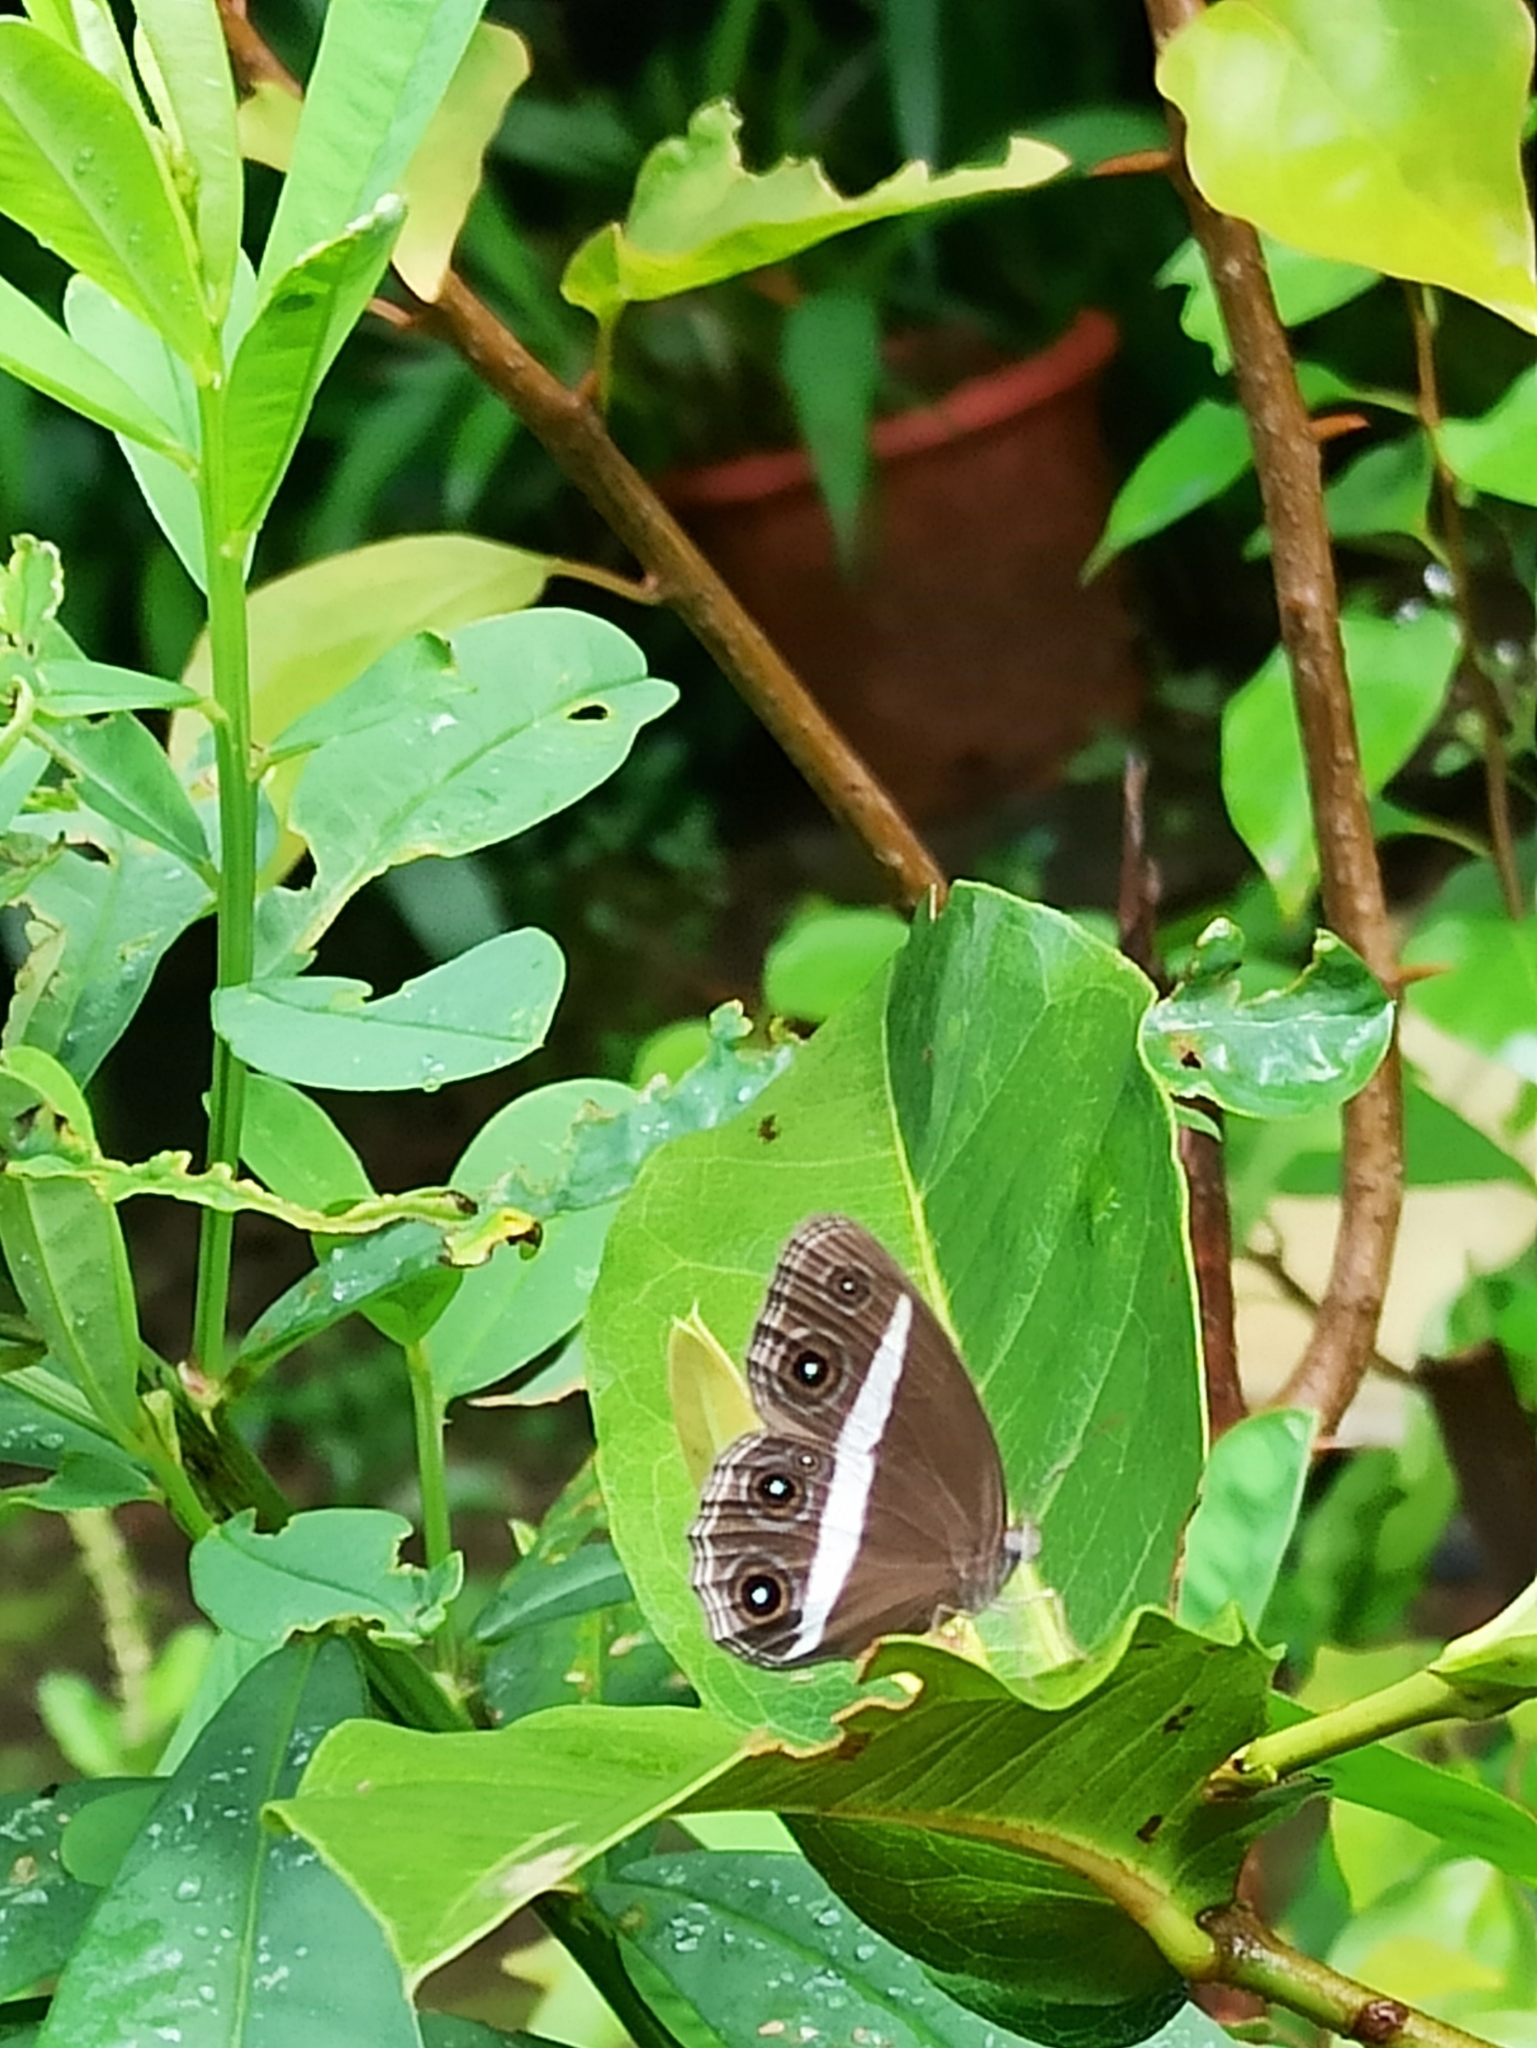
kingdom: Animalia
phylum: Arthropoda
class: Insecta
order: Lepidoptera
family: Nymphalidae
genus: Orsotriaena
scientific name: Orsotriaena medus
